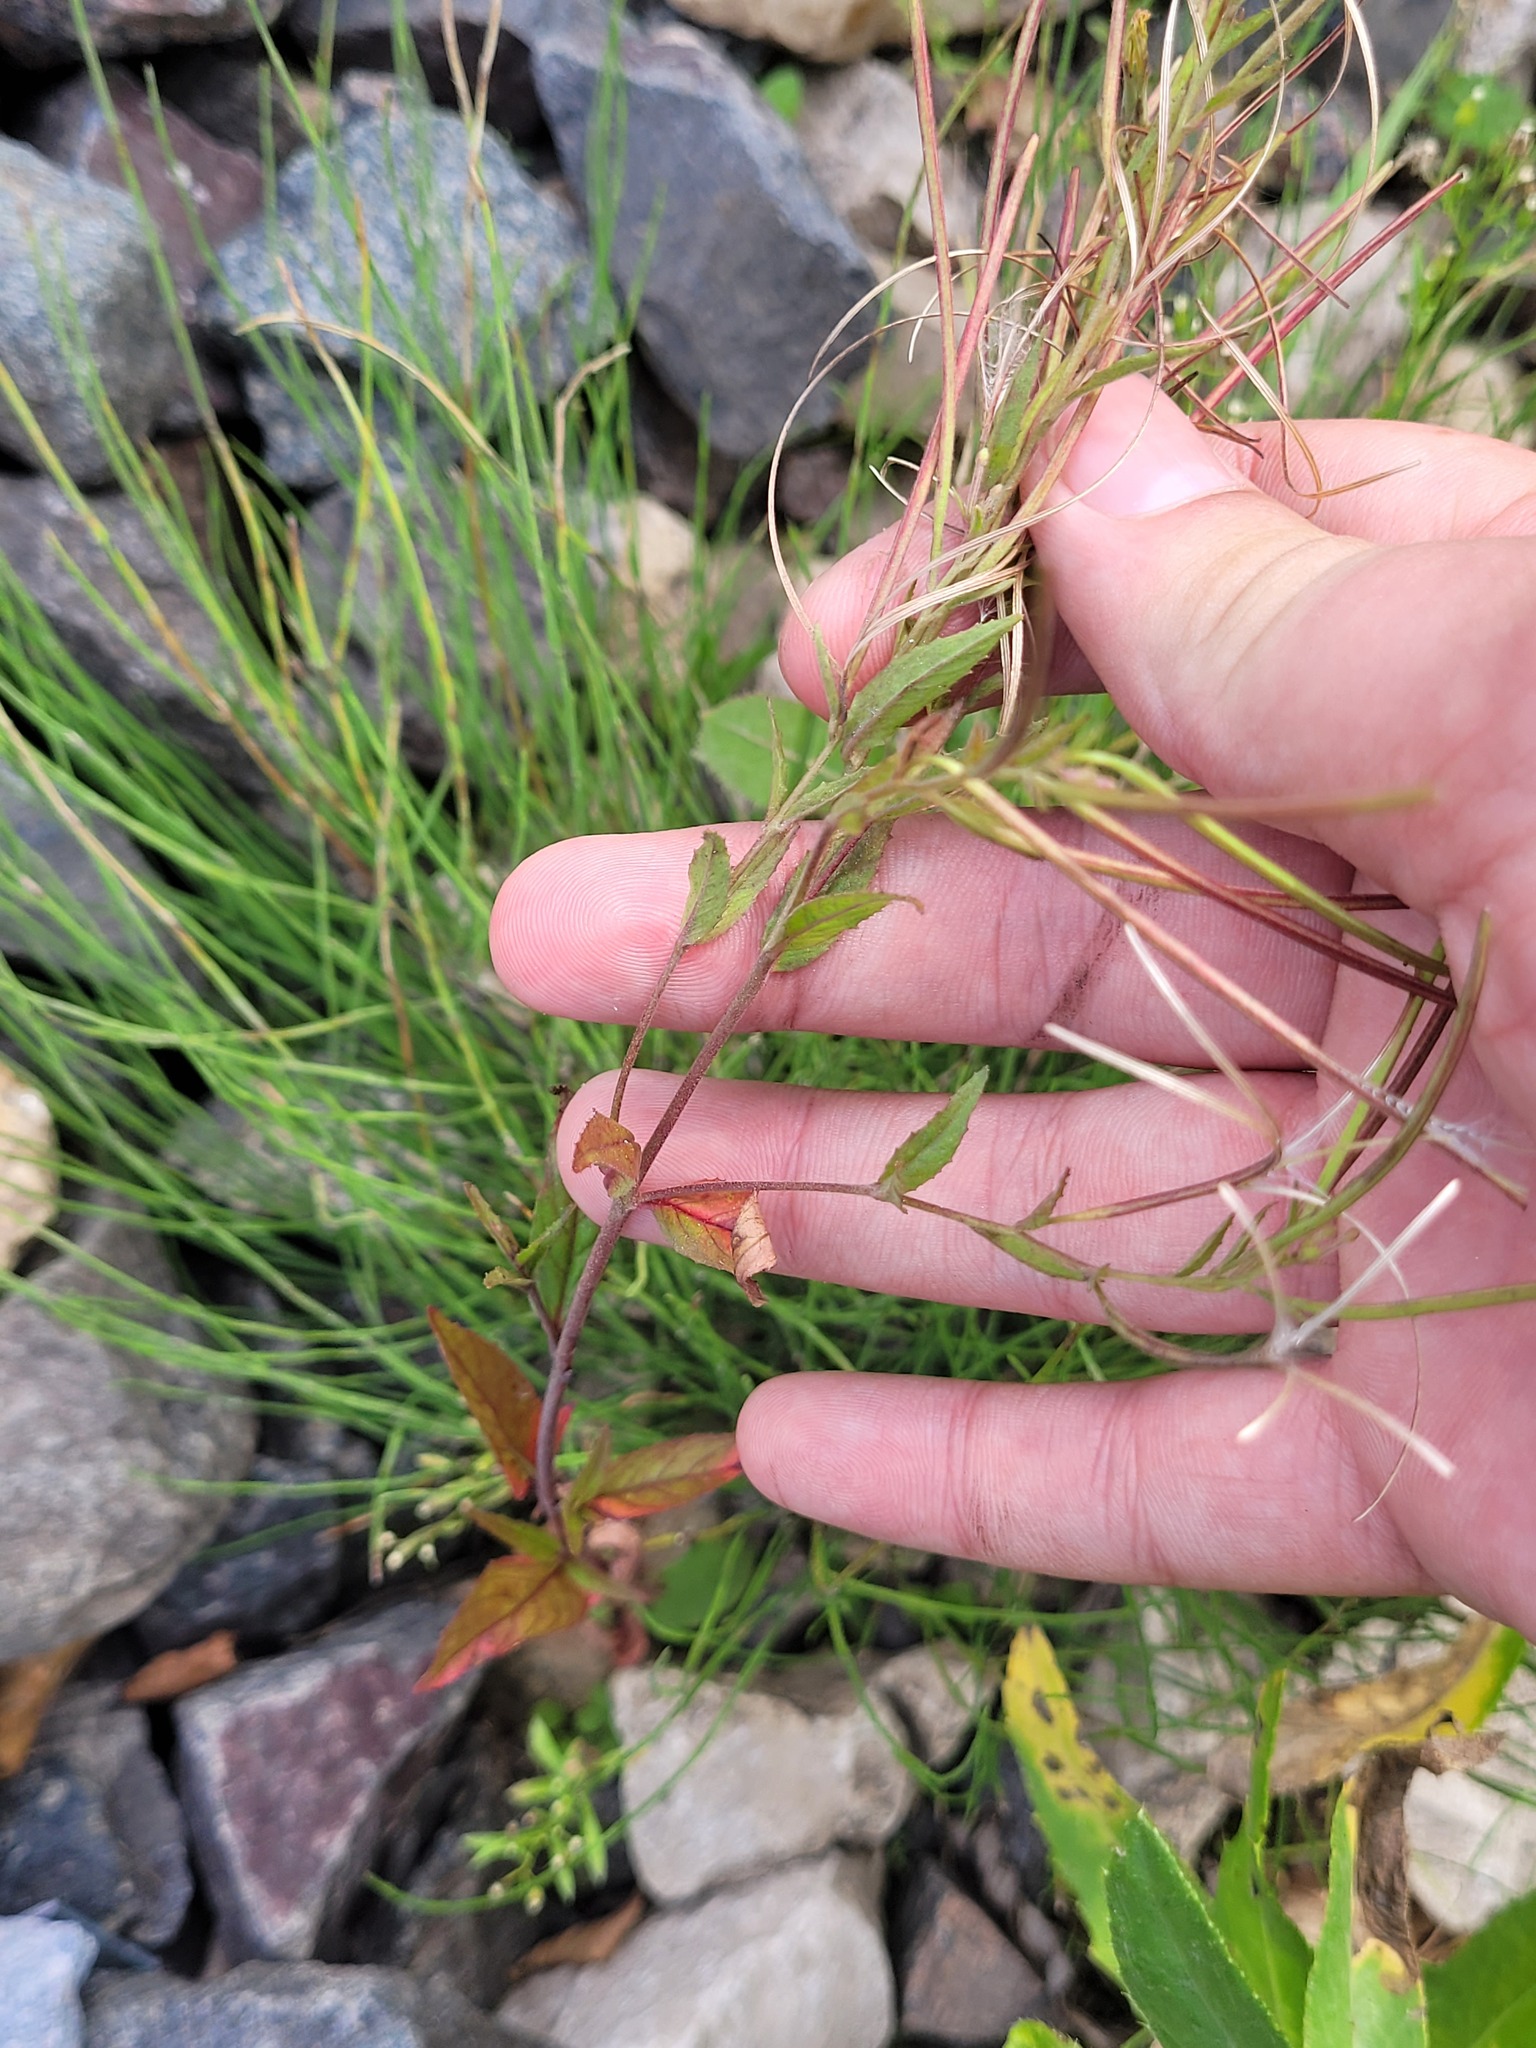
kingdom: Plantae
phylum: Tracheophyta
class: Magnoliopsida
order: Myrtales
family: Onagraceae
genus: Epilobium
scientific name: Epilobium pseudorubescens
